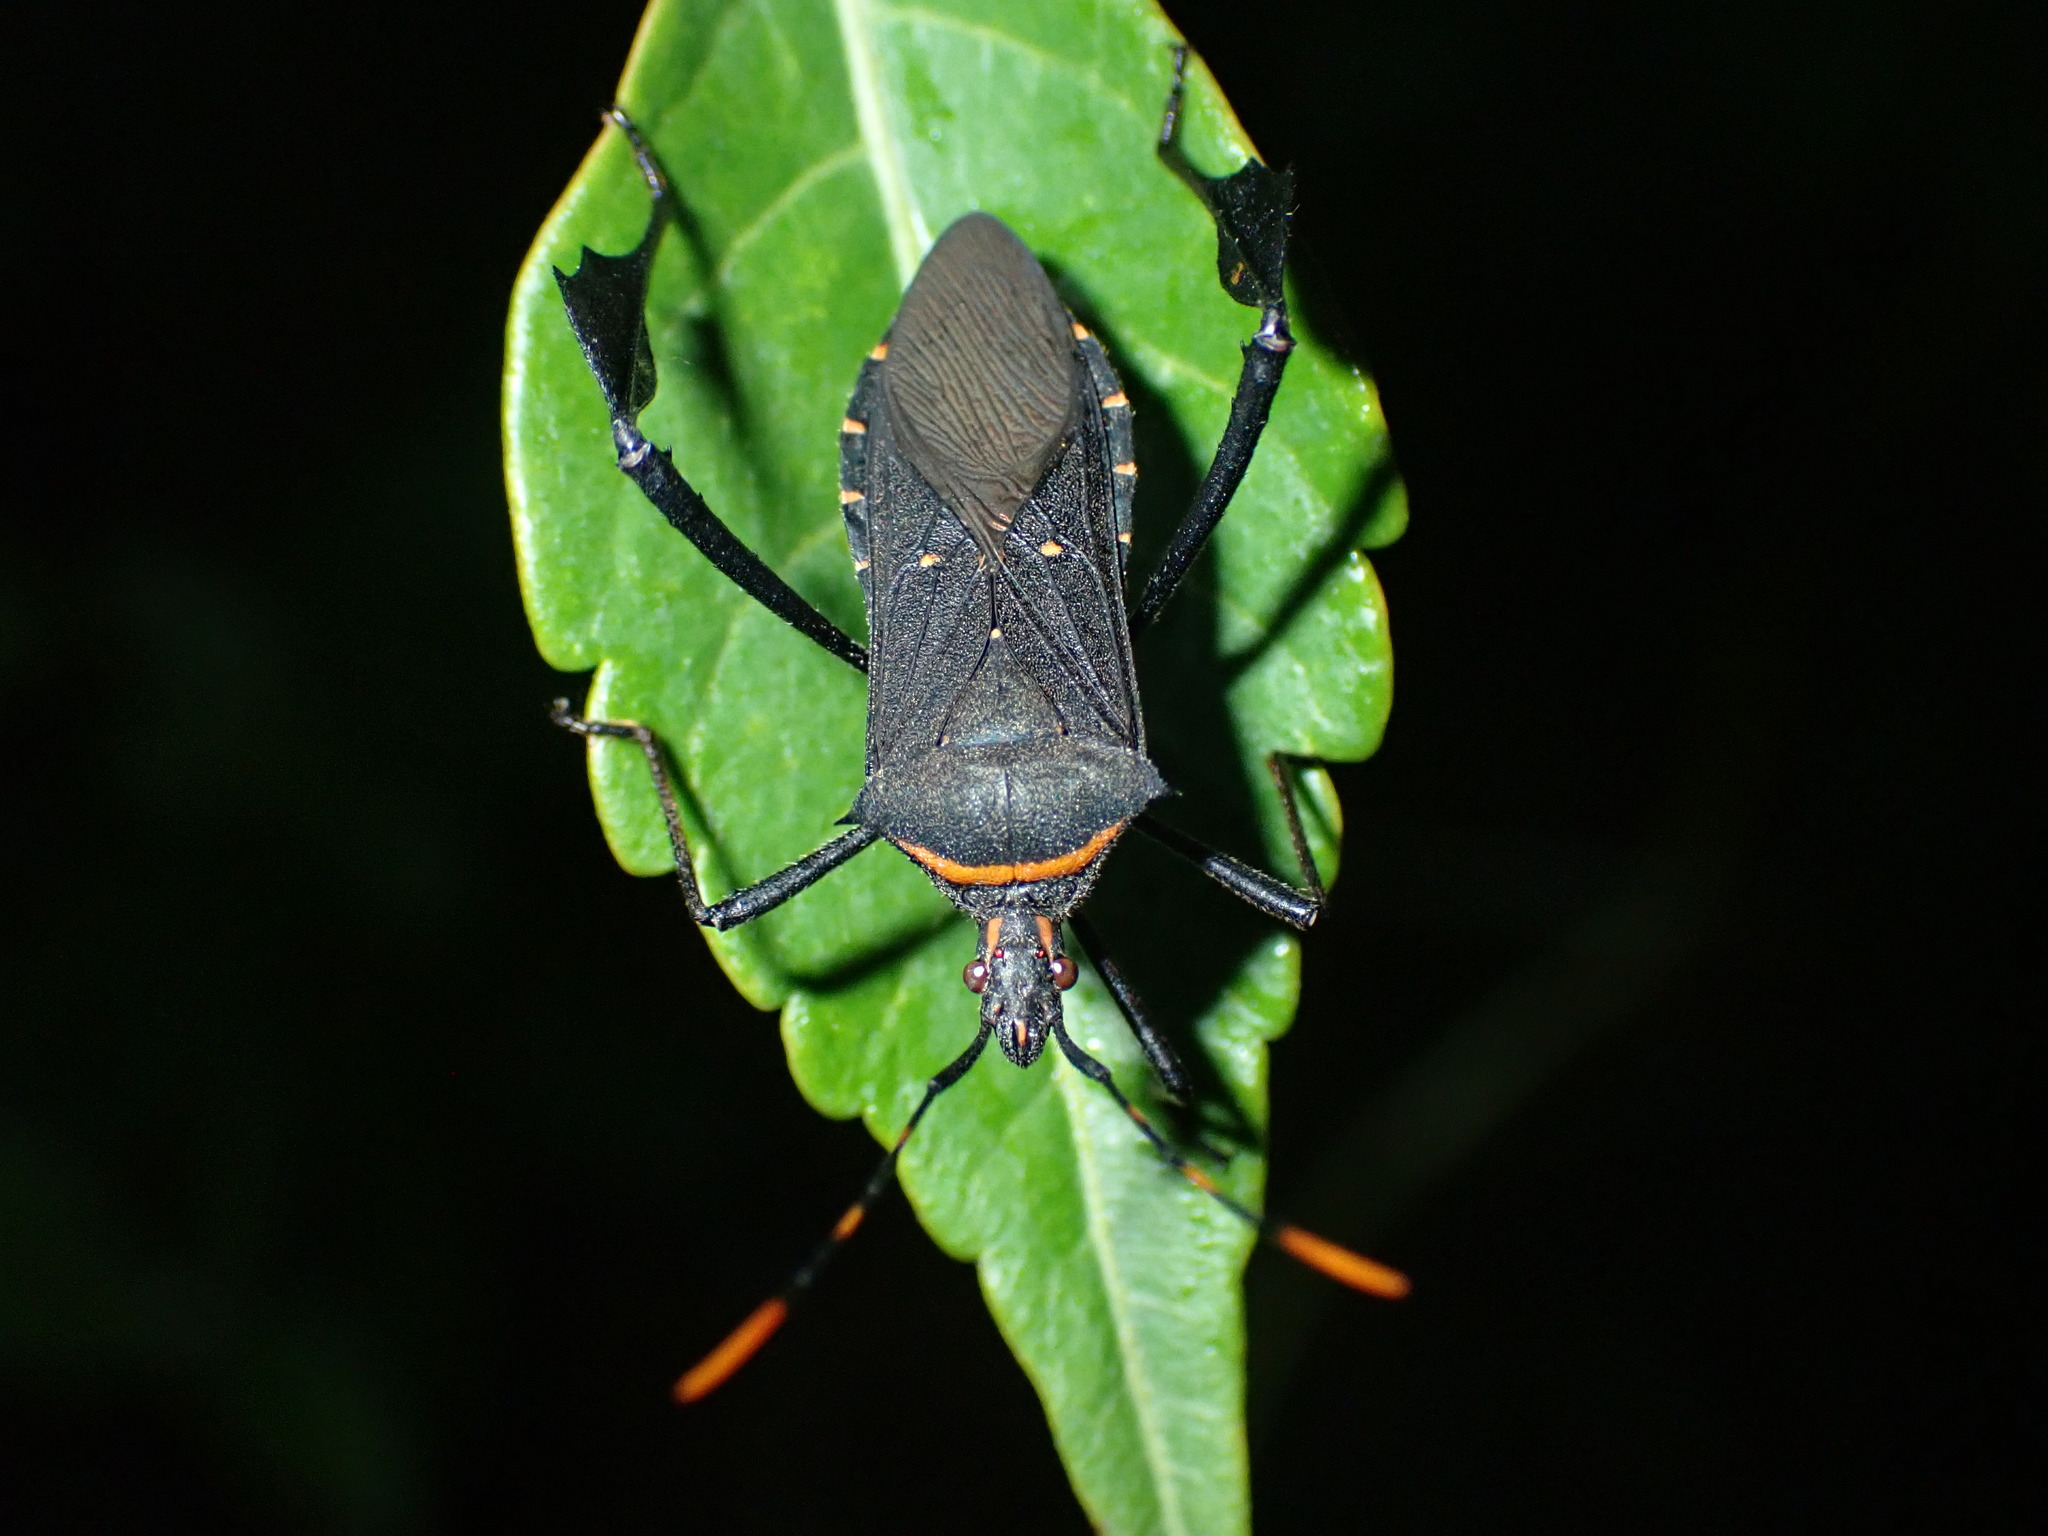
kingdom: Animalia
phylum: Arthropoda
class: Insecta
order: Hemiptera
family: Coreidae
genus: Leptoglossus
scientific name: Leptoglossus gonagra
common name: Citron bug
